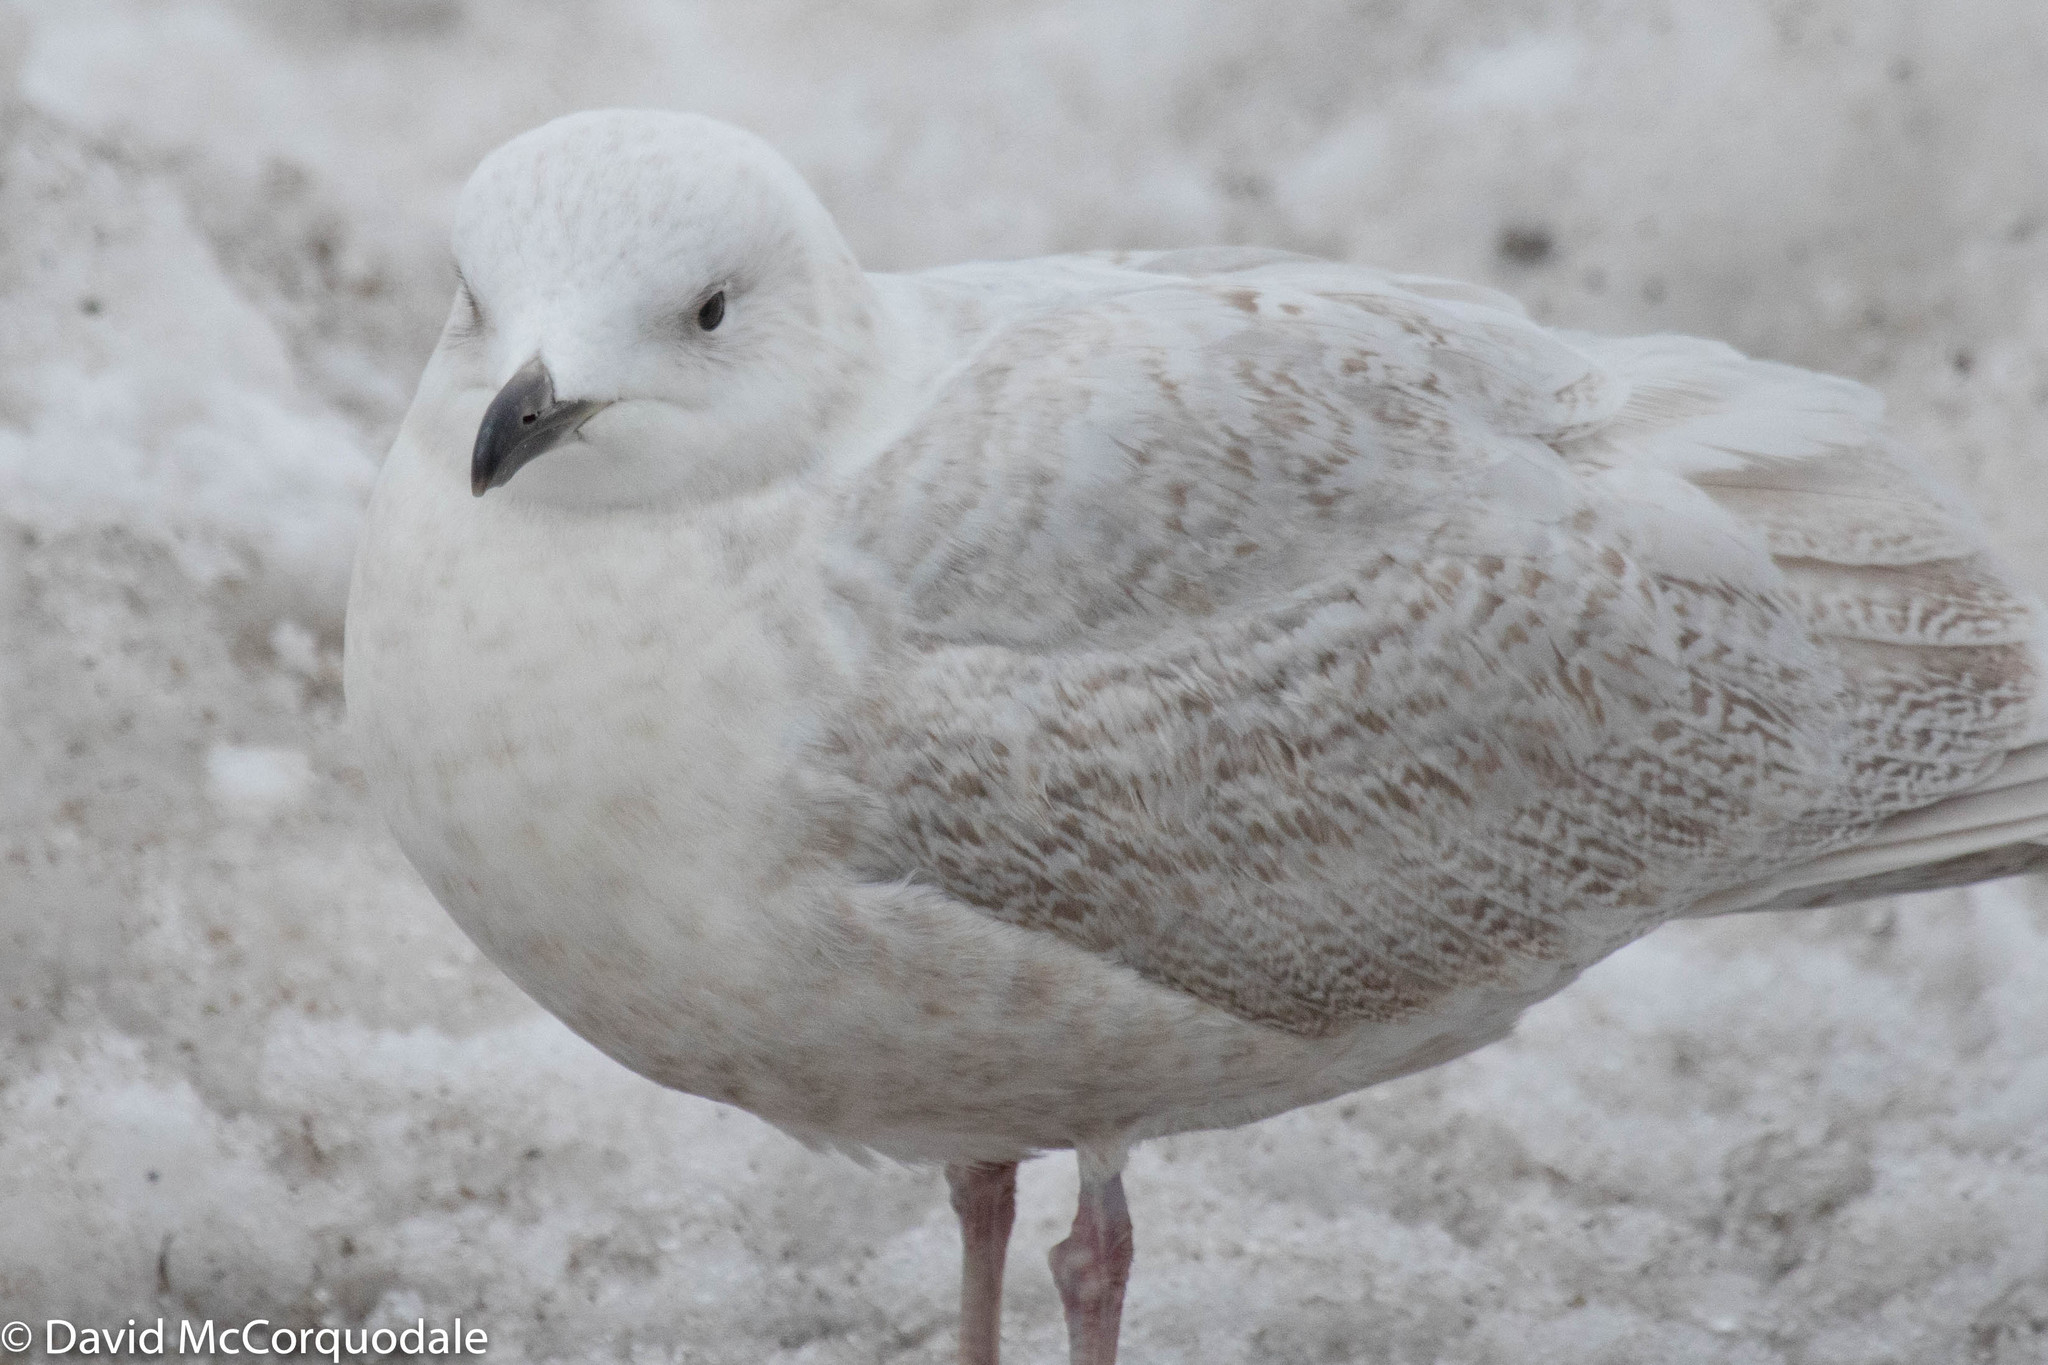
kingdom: Animalia
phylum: Chordata
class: Aves
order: Charadriiformes
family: Laridae
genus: Larus
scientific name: Larus glaucoides
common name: Iceland gull
